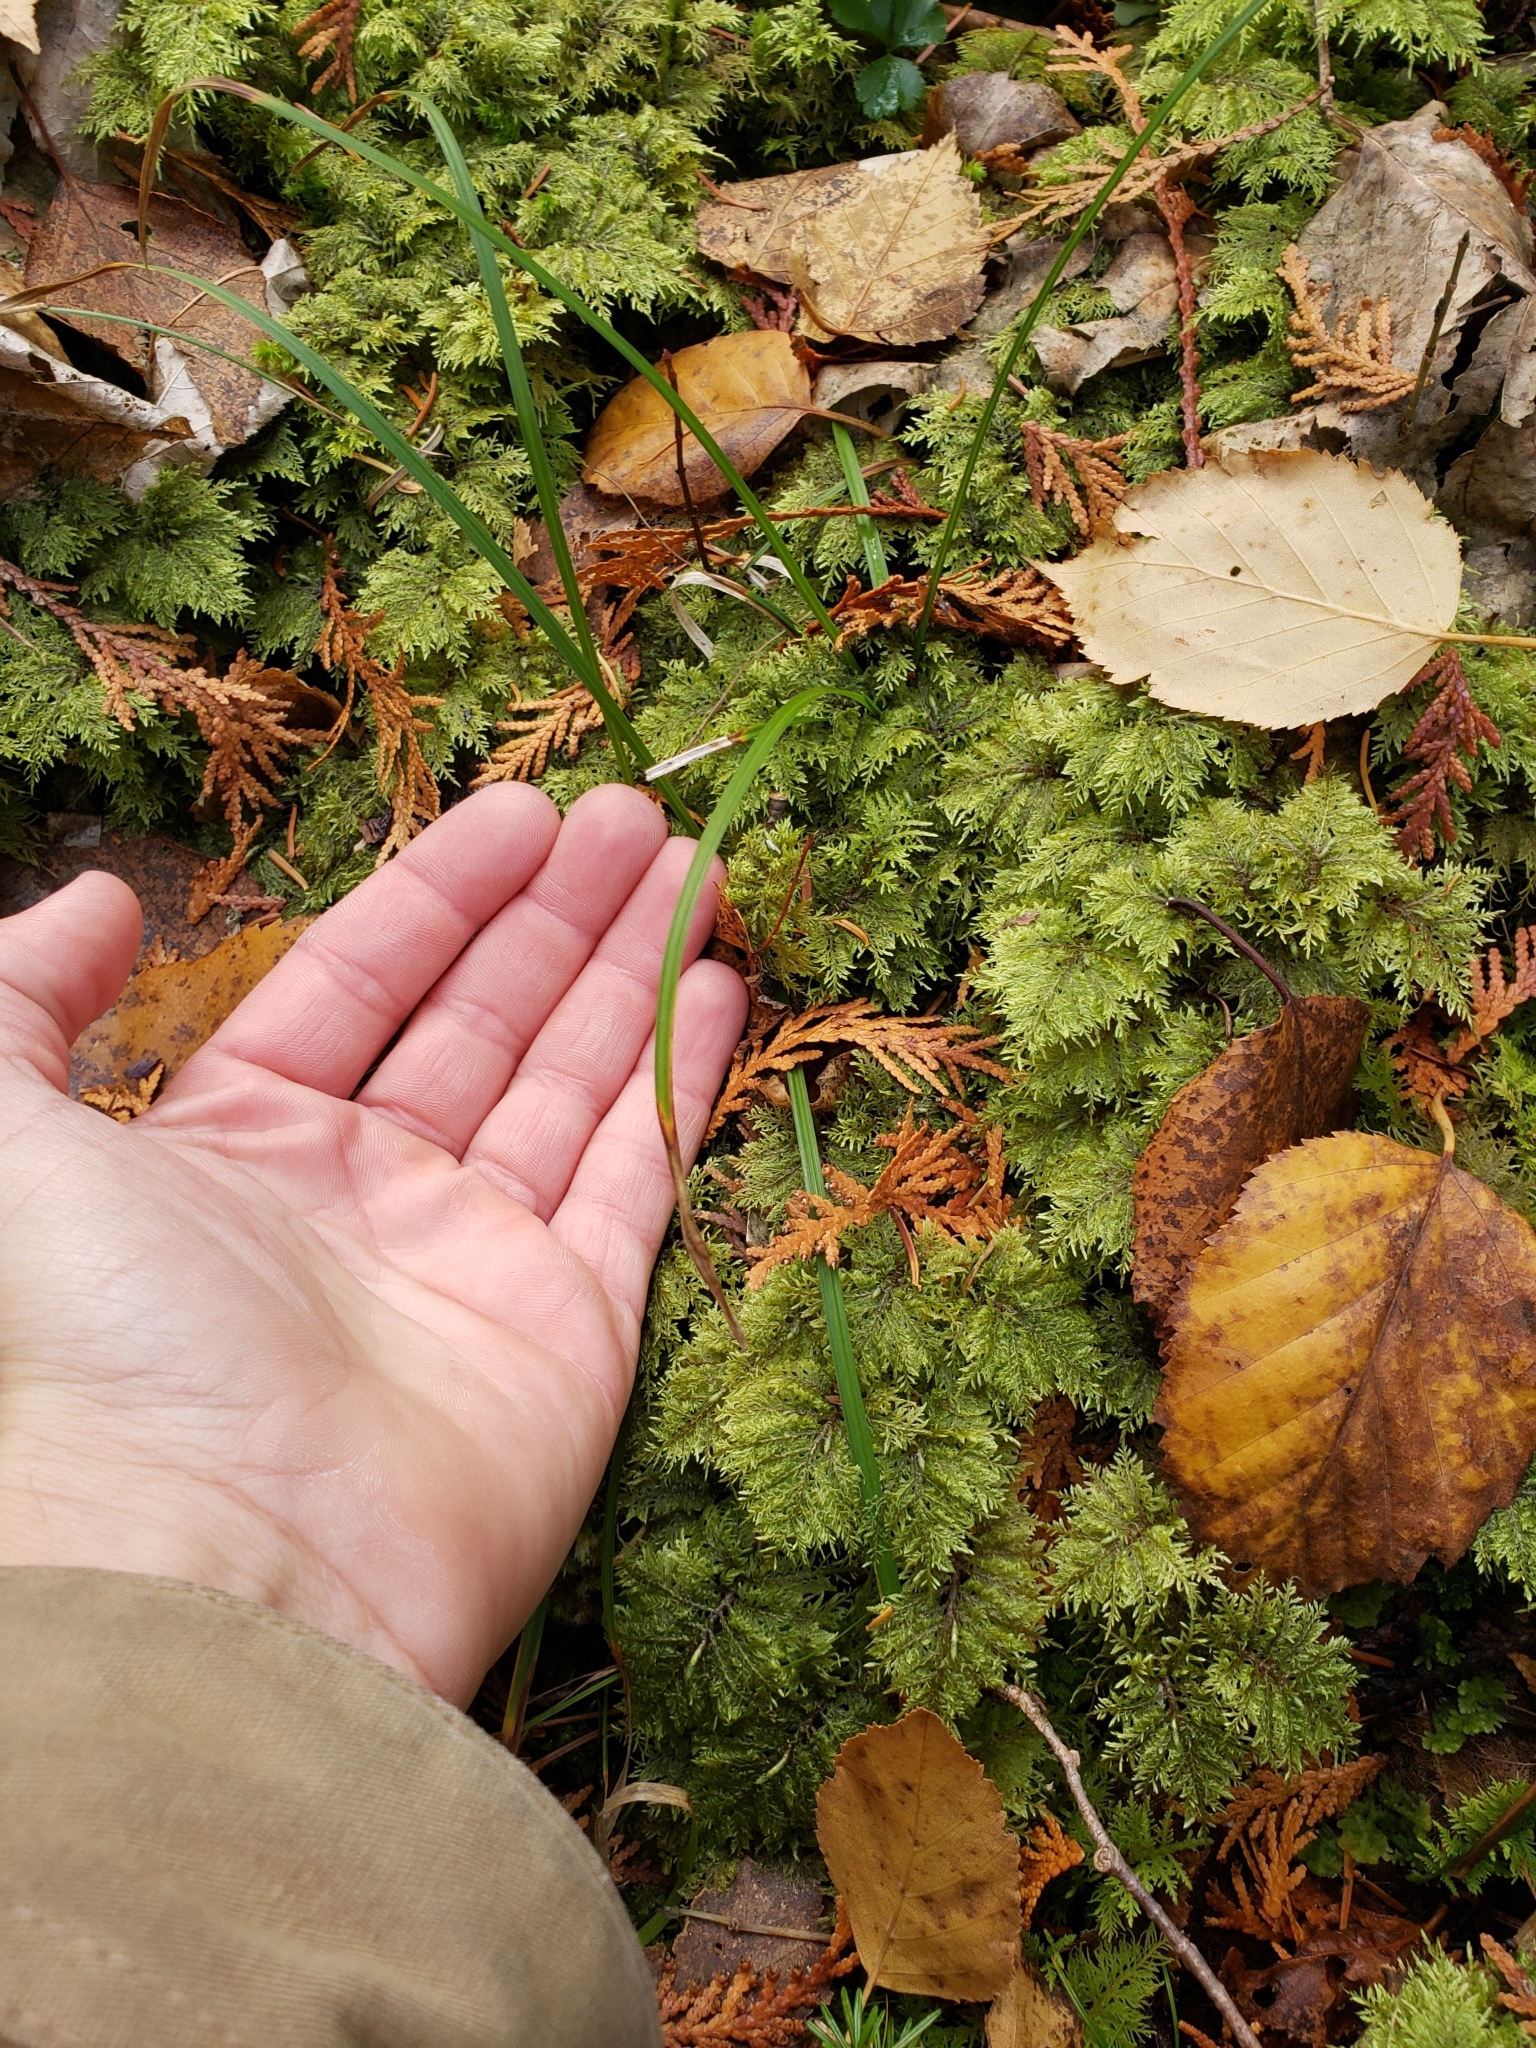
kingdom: Plantae
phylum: Bryophyta
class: Bryopsida
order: Hypnales
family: Hylocomiaceae
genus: Hylocomium
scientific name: Hylocomium splendens
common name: Stairstep moss
